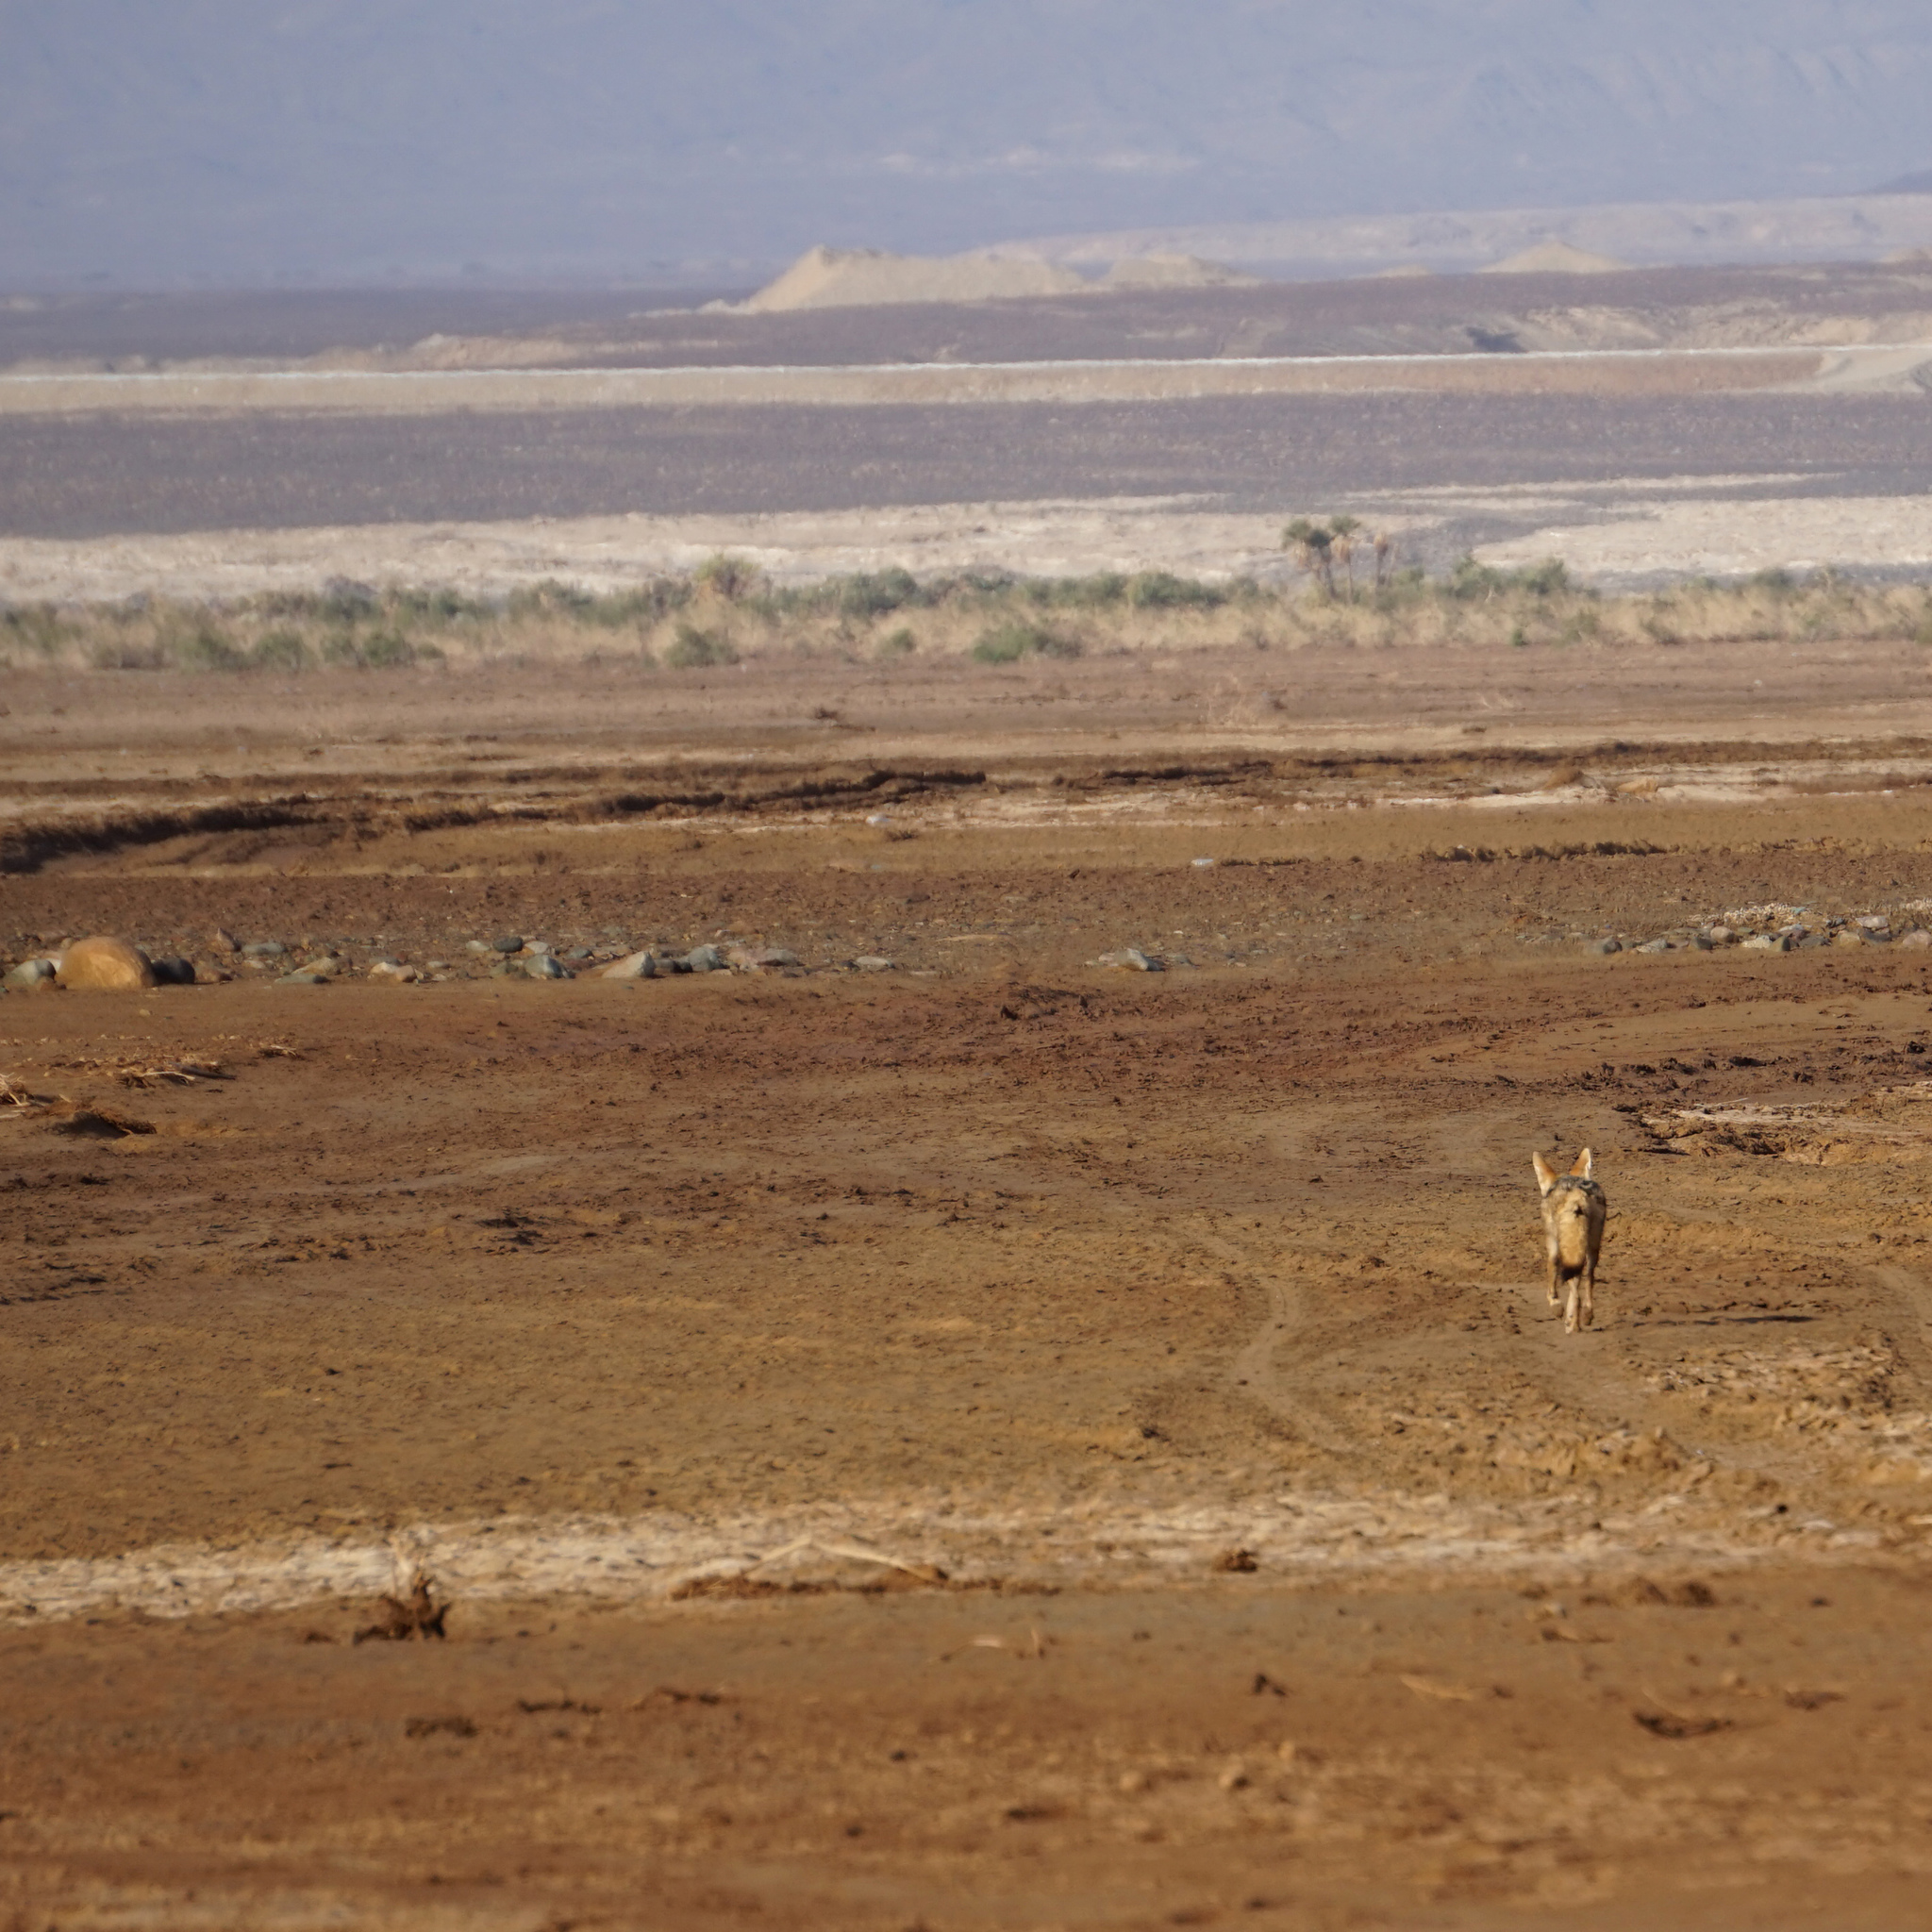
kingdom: Animalia
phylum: Chordata
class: Mammalia
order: Carnivora
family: Canidae
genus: Canis
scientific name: Canis lupaster
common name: African golden wolf
